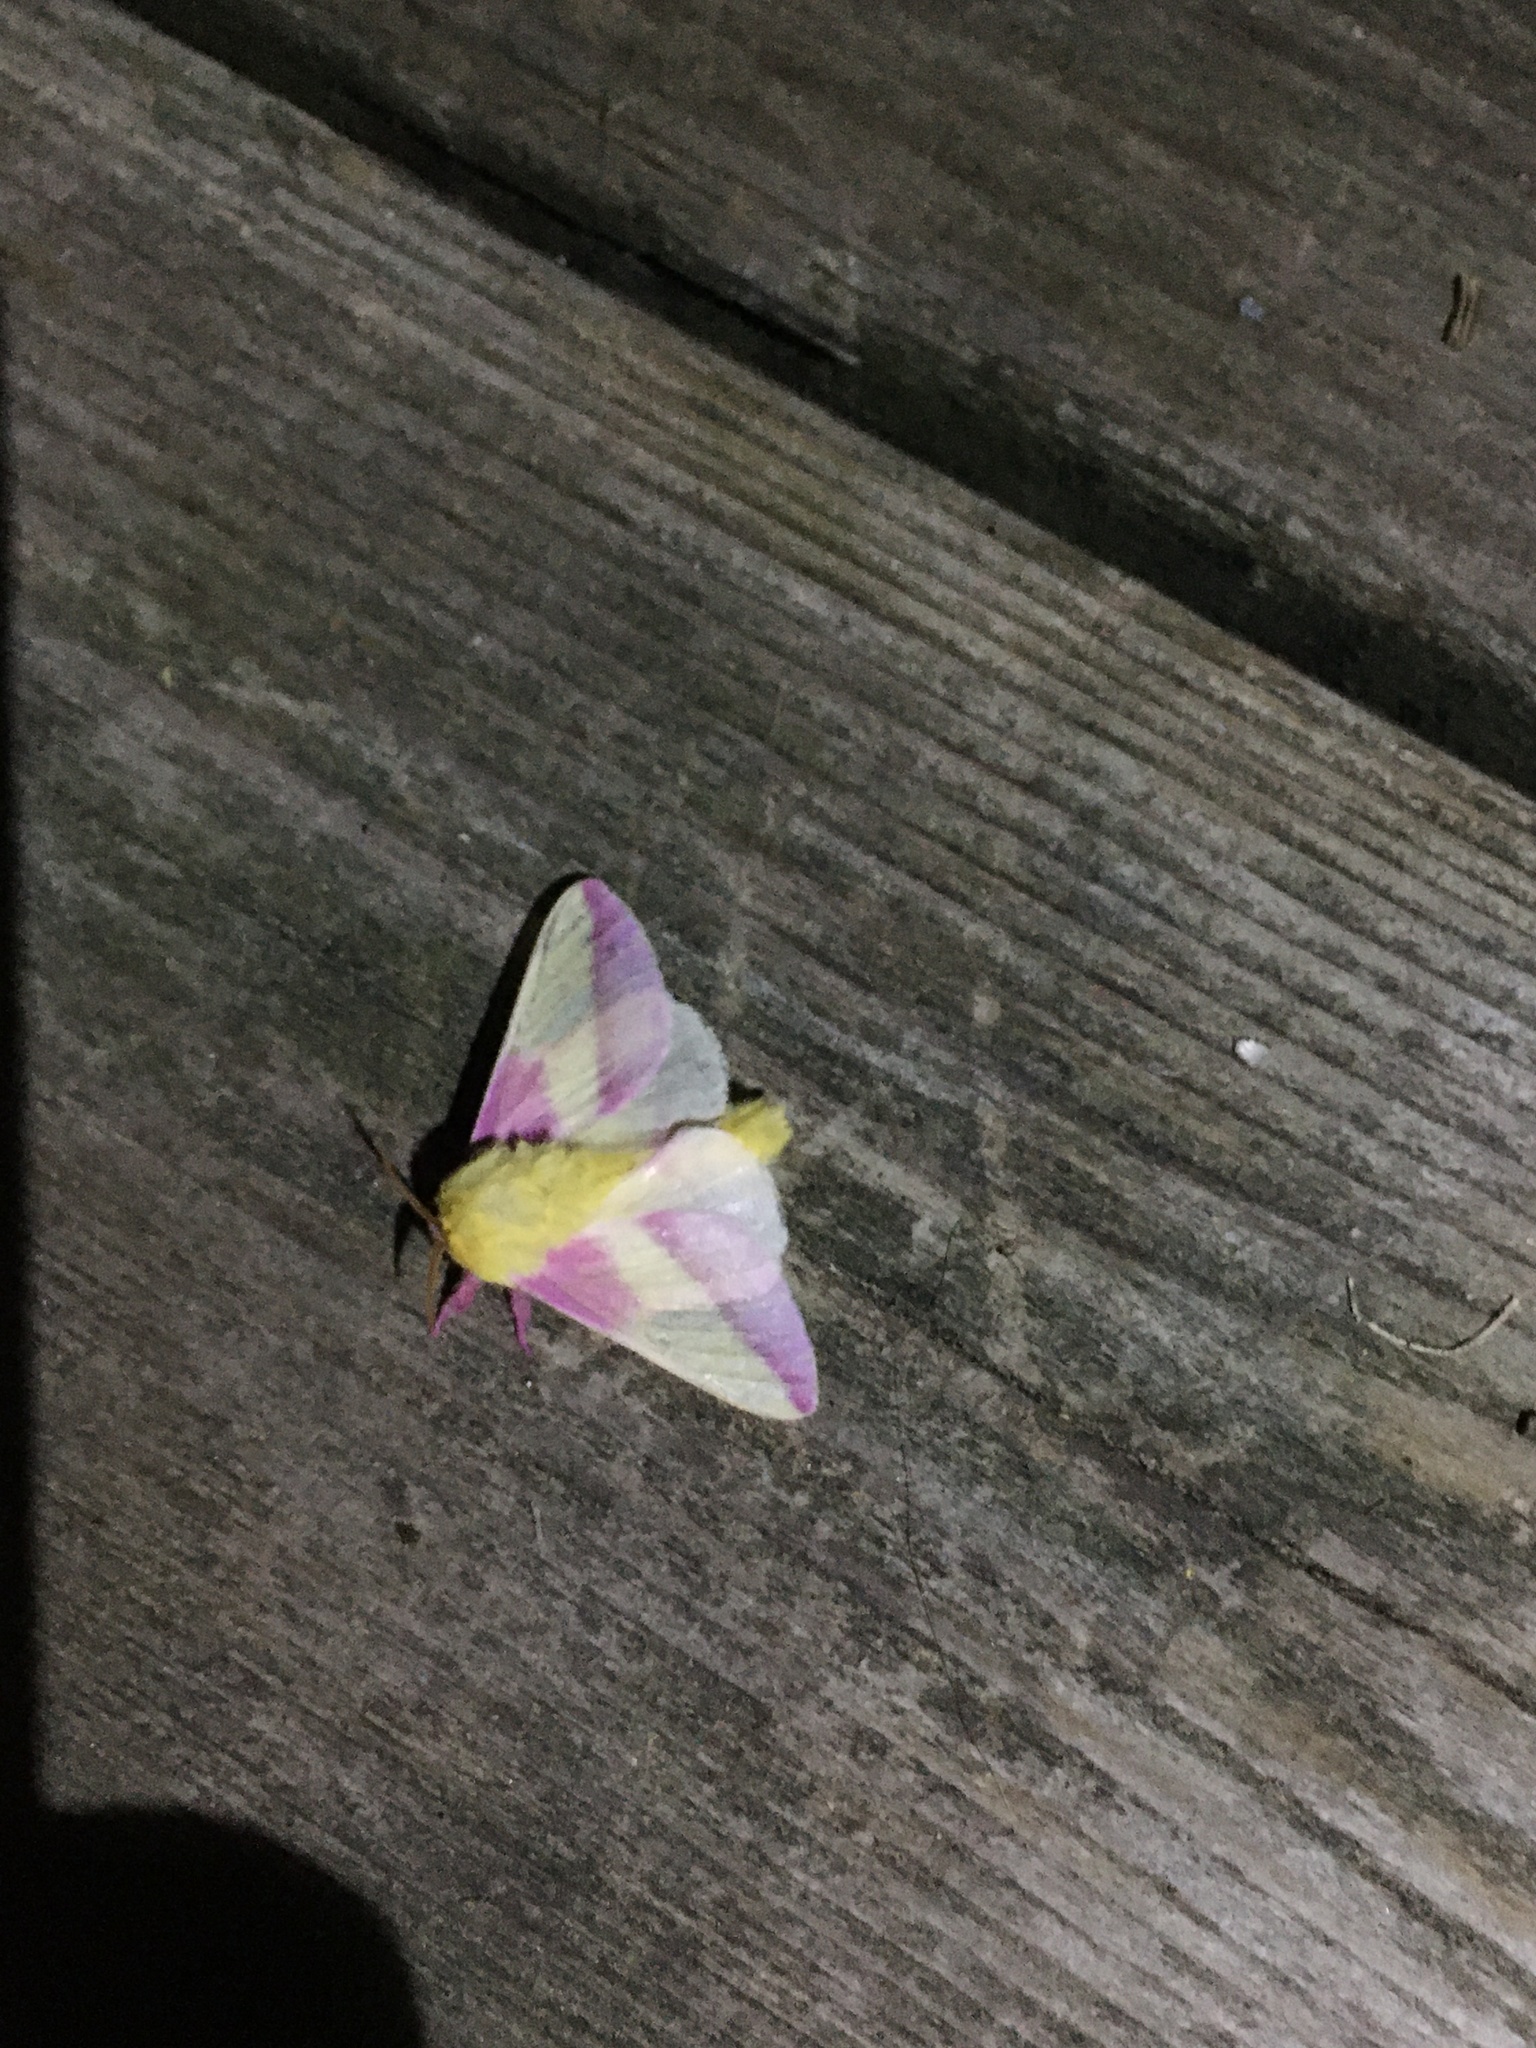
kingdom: Animalia
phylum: Arthropoda
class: Insecta
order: Lepidoptera
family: Saturniidae
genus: Dryocampa
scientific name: Dryocampa rubicunda
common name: Rosy maple moth
